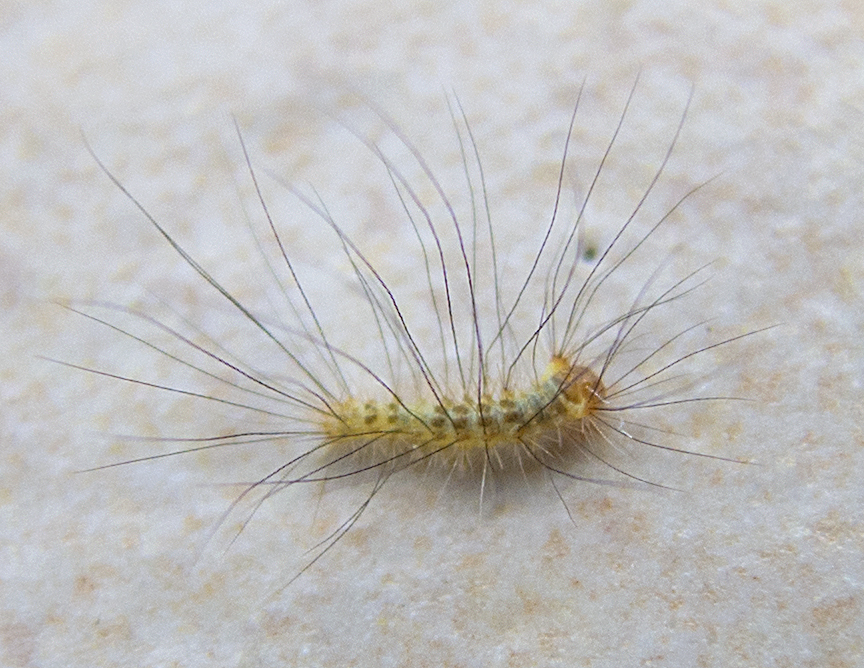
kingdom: Animalia
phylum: Arthropoda
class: Insecta
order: Lepidoptera
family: Erebidae
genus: Calliteara
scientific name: Calliteara pudibunda
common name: Pale tussock
